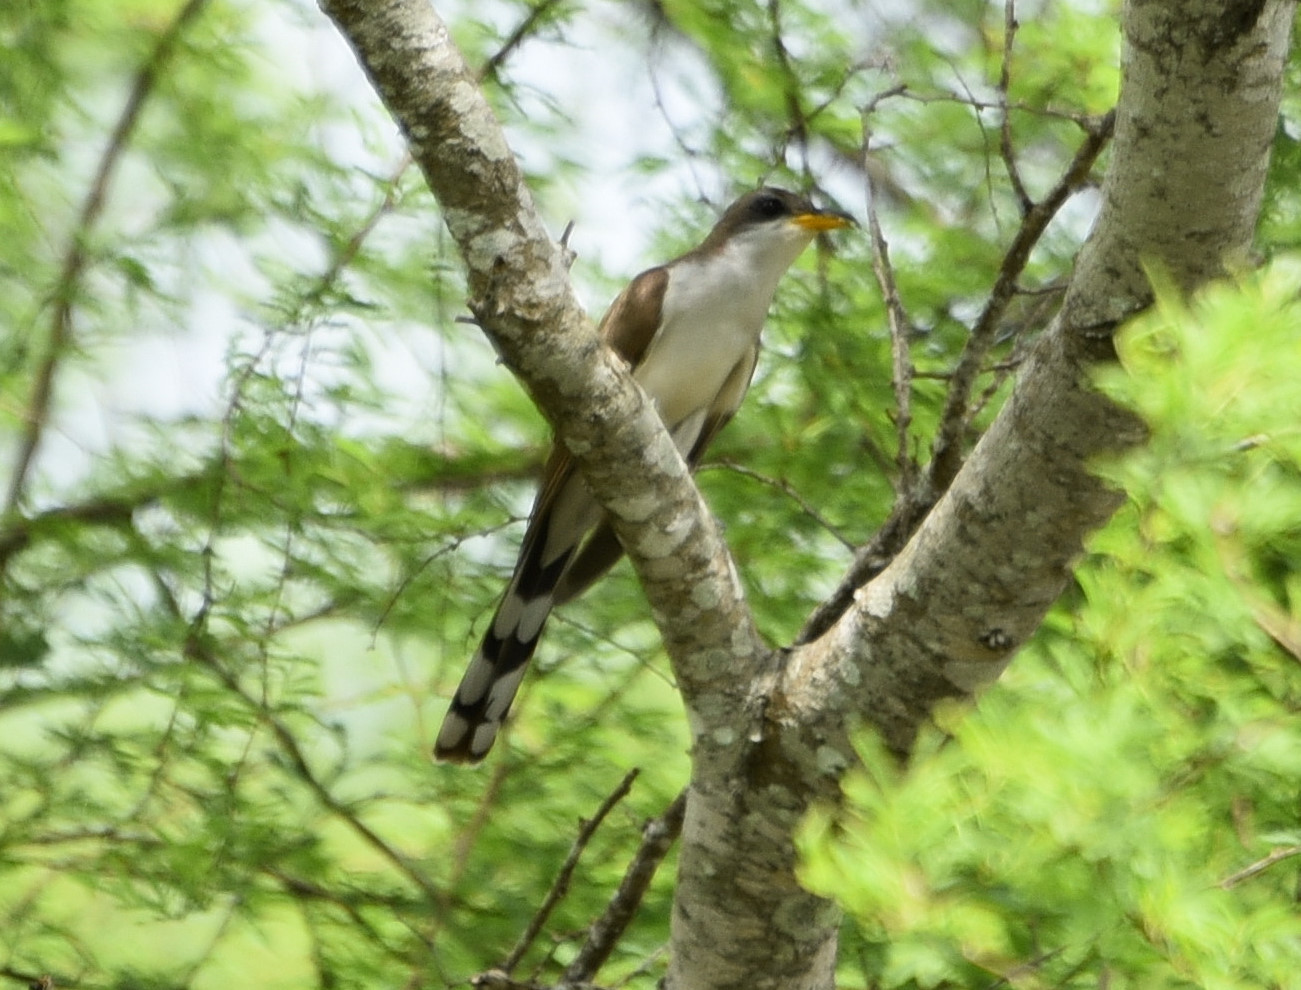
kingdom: Animalia
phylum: Chordata
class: Aves
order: Cuculiformes
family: Cuculidae
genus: Coccyzus
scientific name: Coccyzus americanus
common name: Yellow-billed cuckoo
